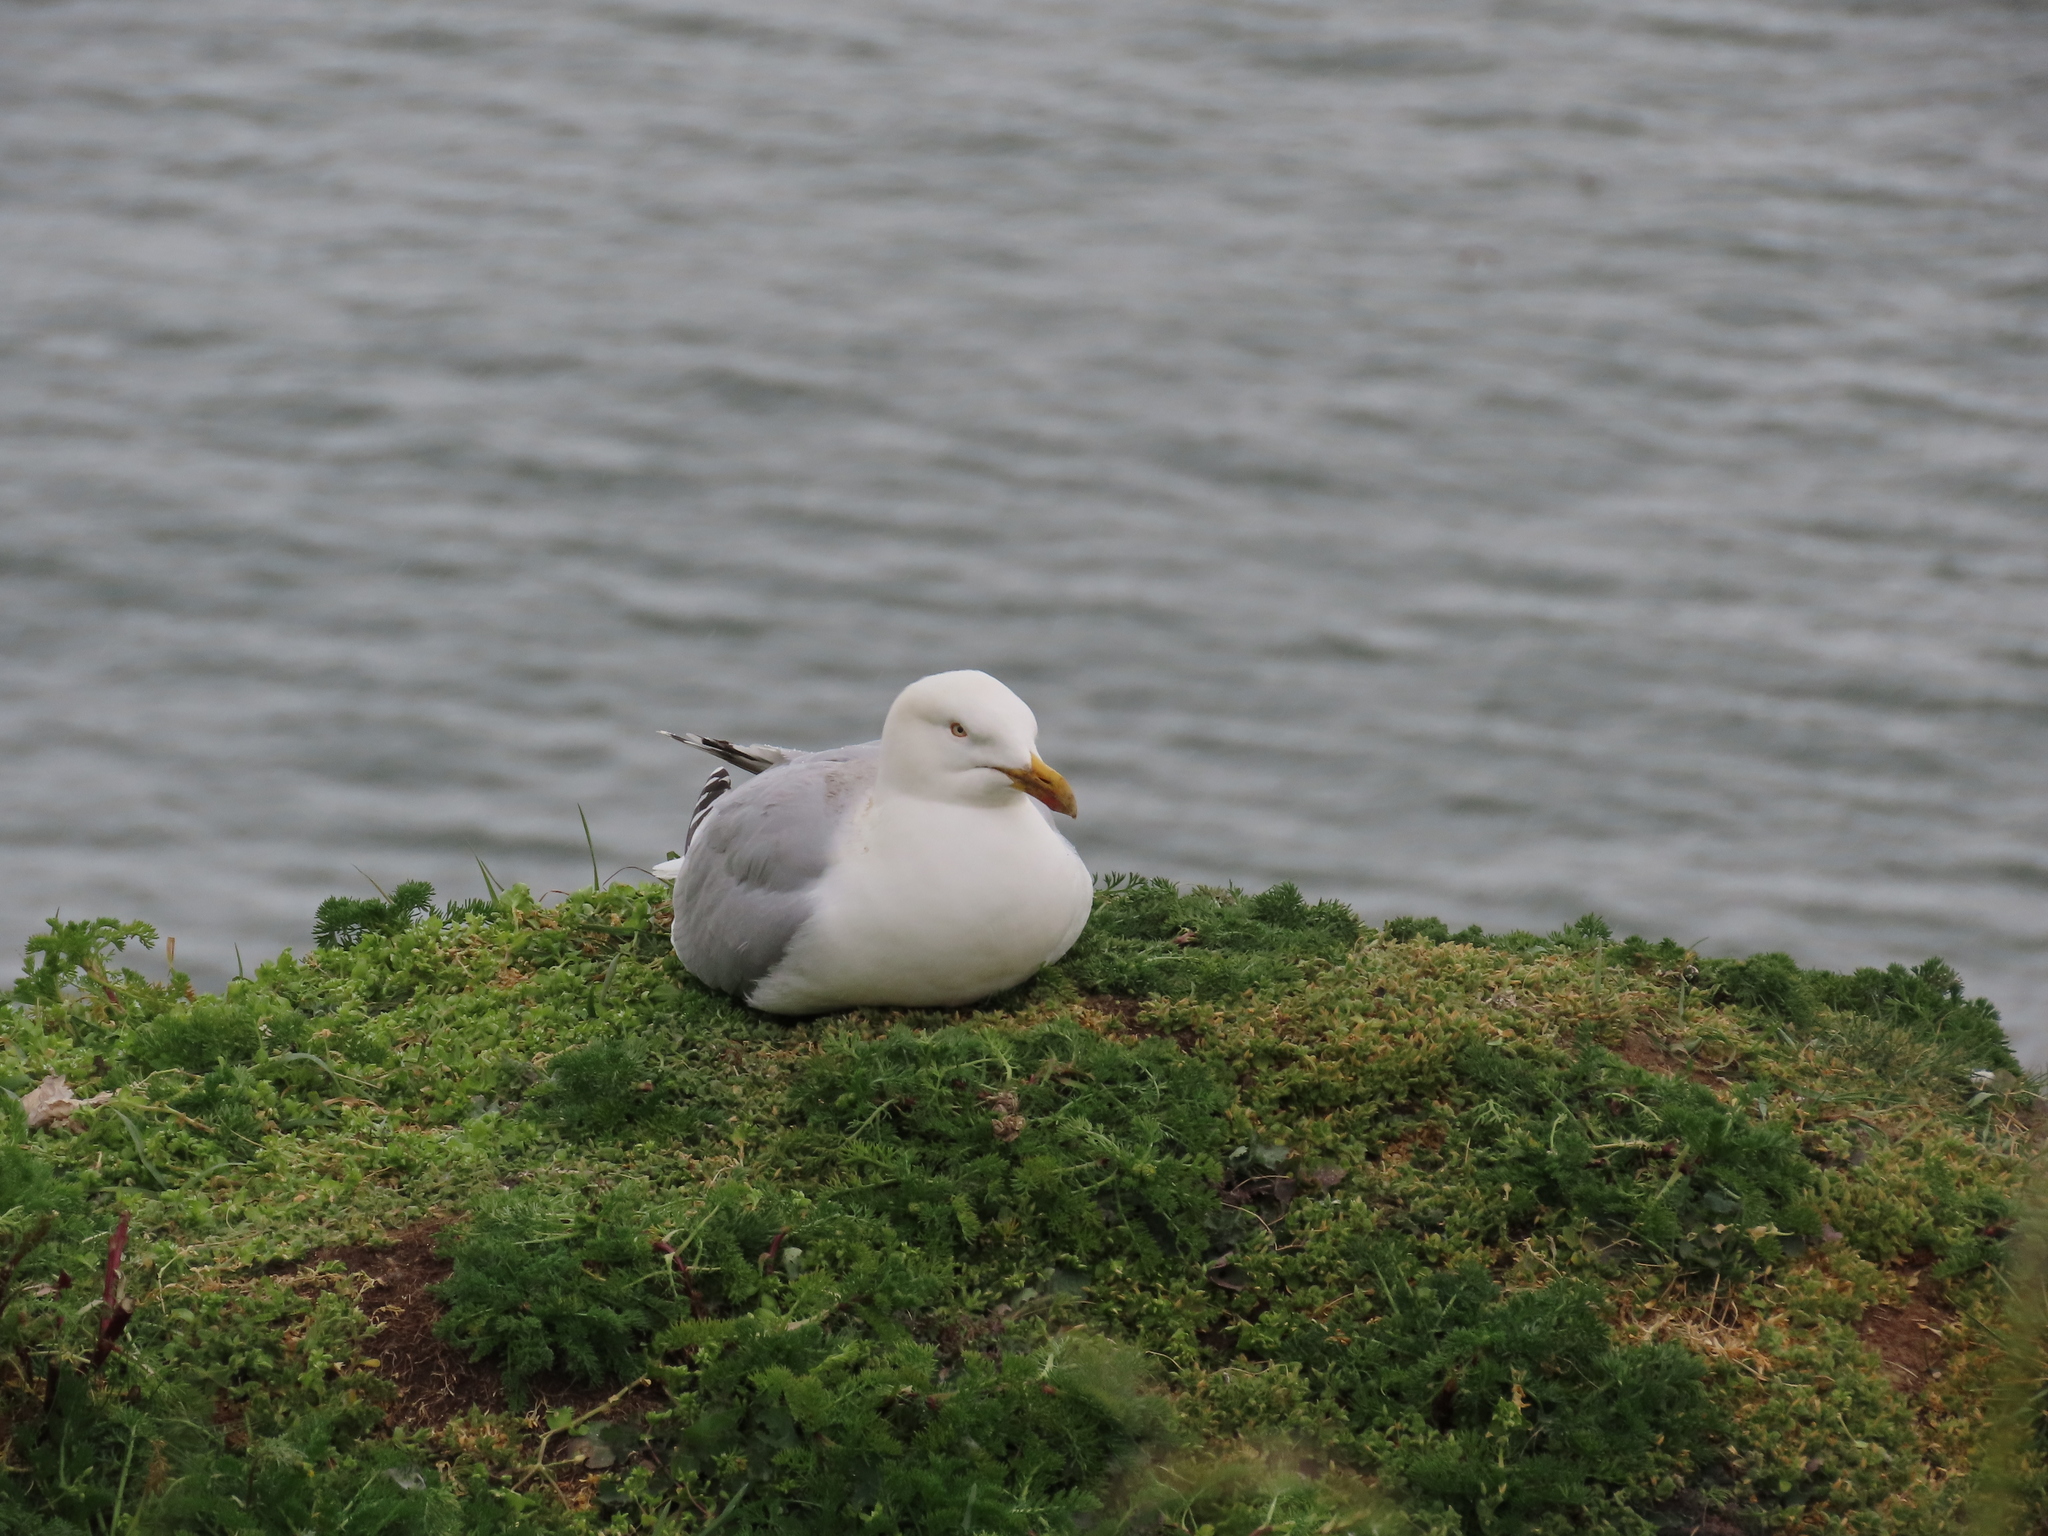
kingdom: Animalia
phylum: Chordata
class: Aves
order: Charadriiformes
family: Laridae
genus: Larus
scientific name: Larus argentatus
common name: Herring gull
